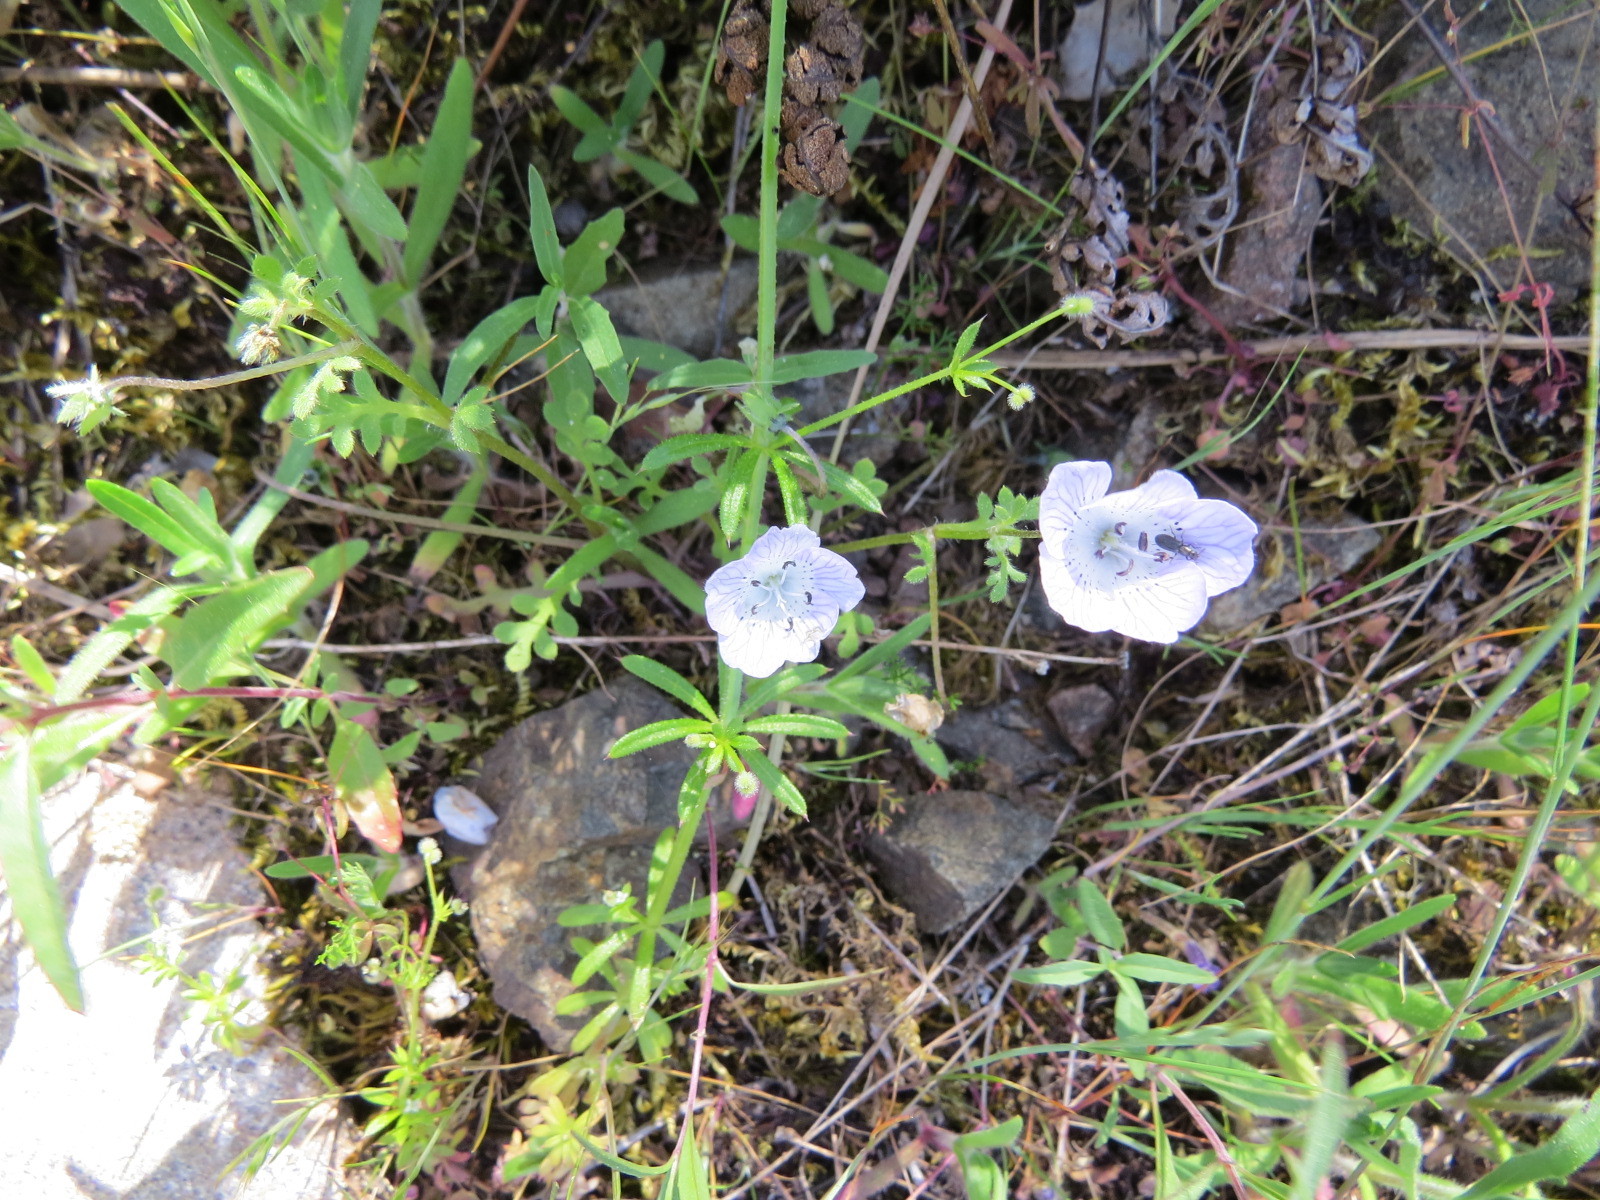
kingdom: Plantae
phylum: Tracheophyta
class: Magnoliopsida
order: Boraginales
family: Hydrophyllaceae
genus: Nemophila
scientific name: Nemophila menziesii
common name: Baby's-blue-eyes
